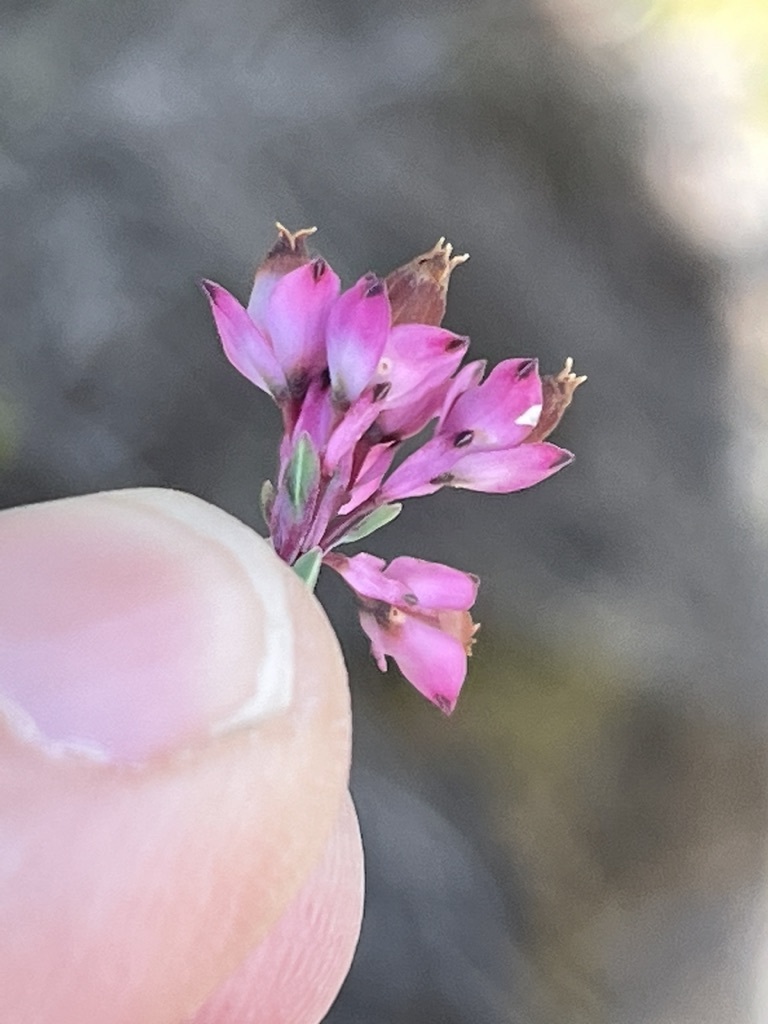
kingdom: Plantae
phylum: Tracheophyta
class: Magnoliopsida
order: Ericales
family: Ericaceae
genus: Erica
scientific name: Erica corifolia
